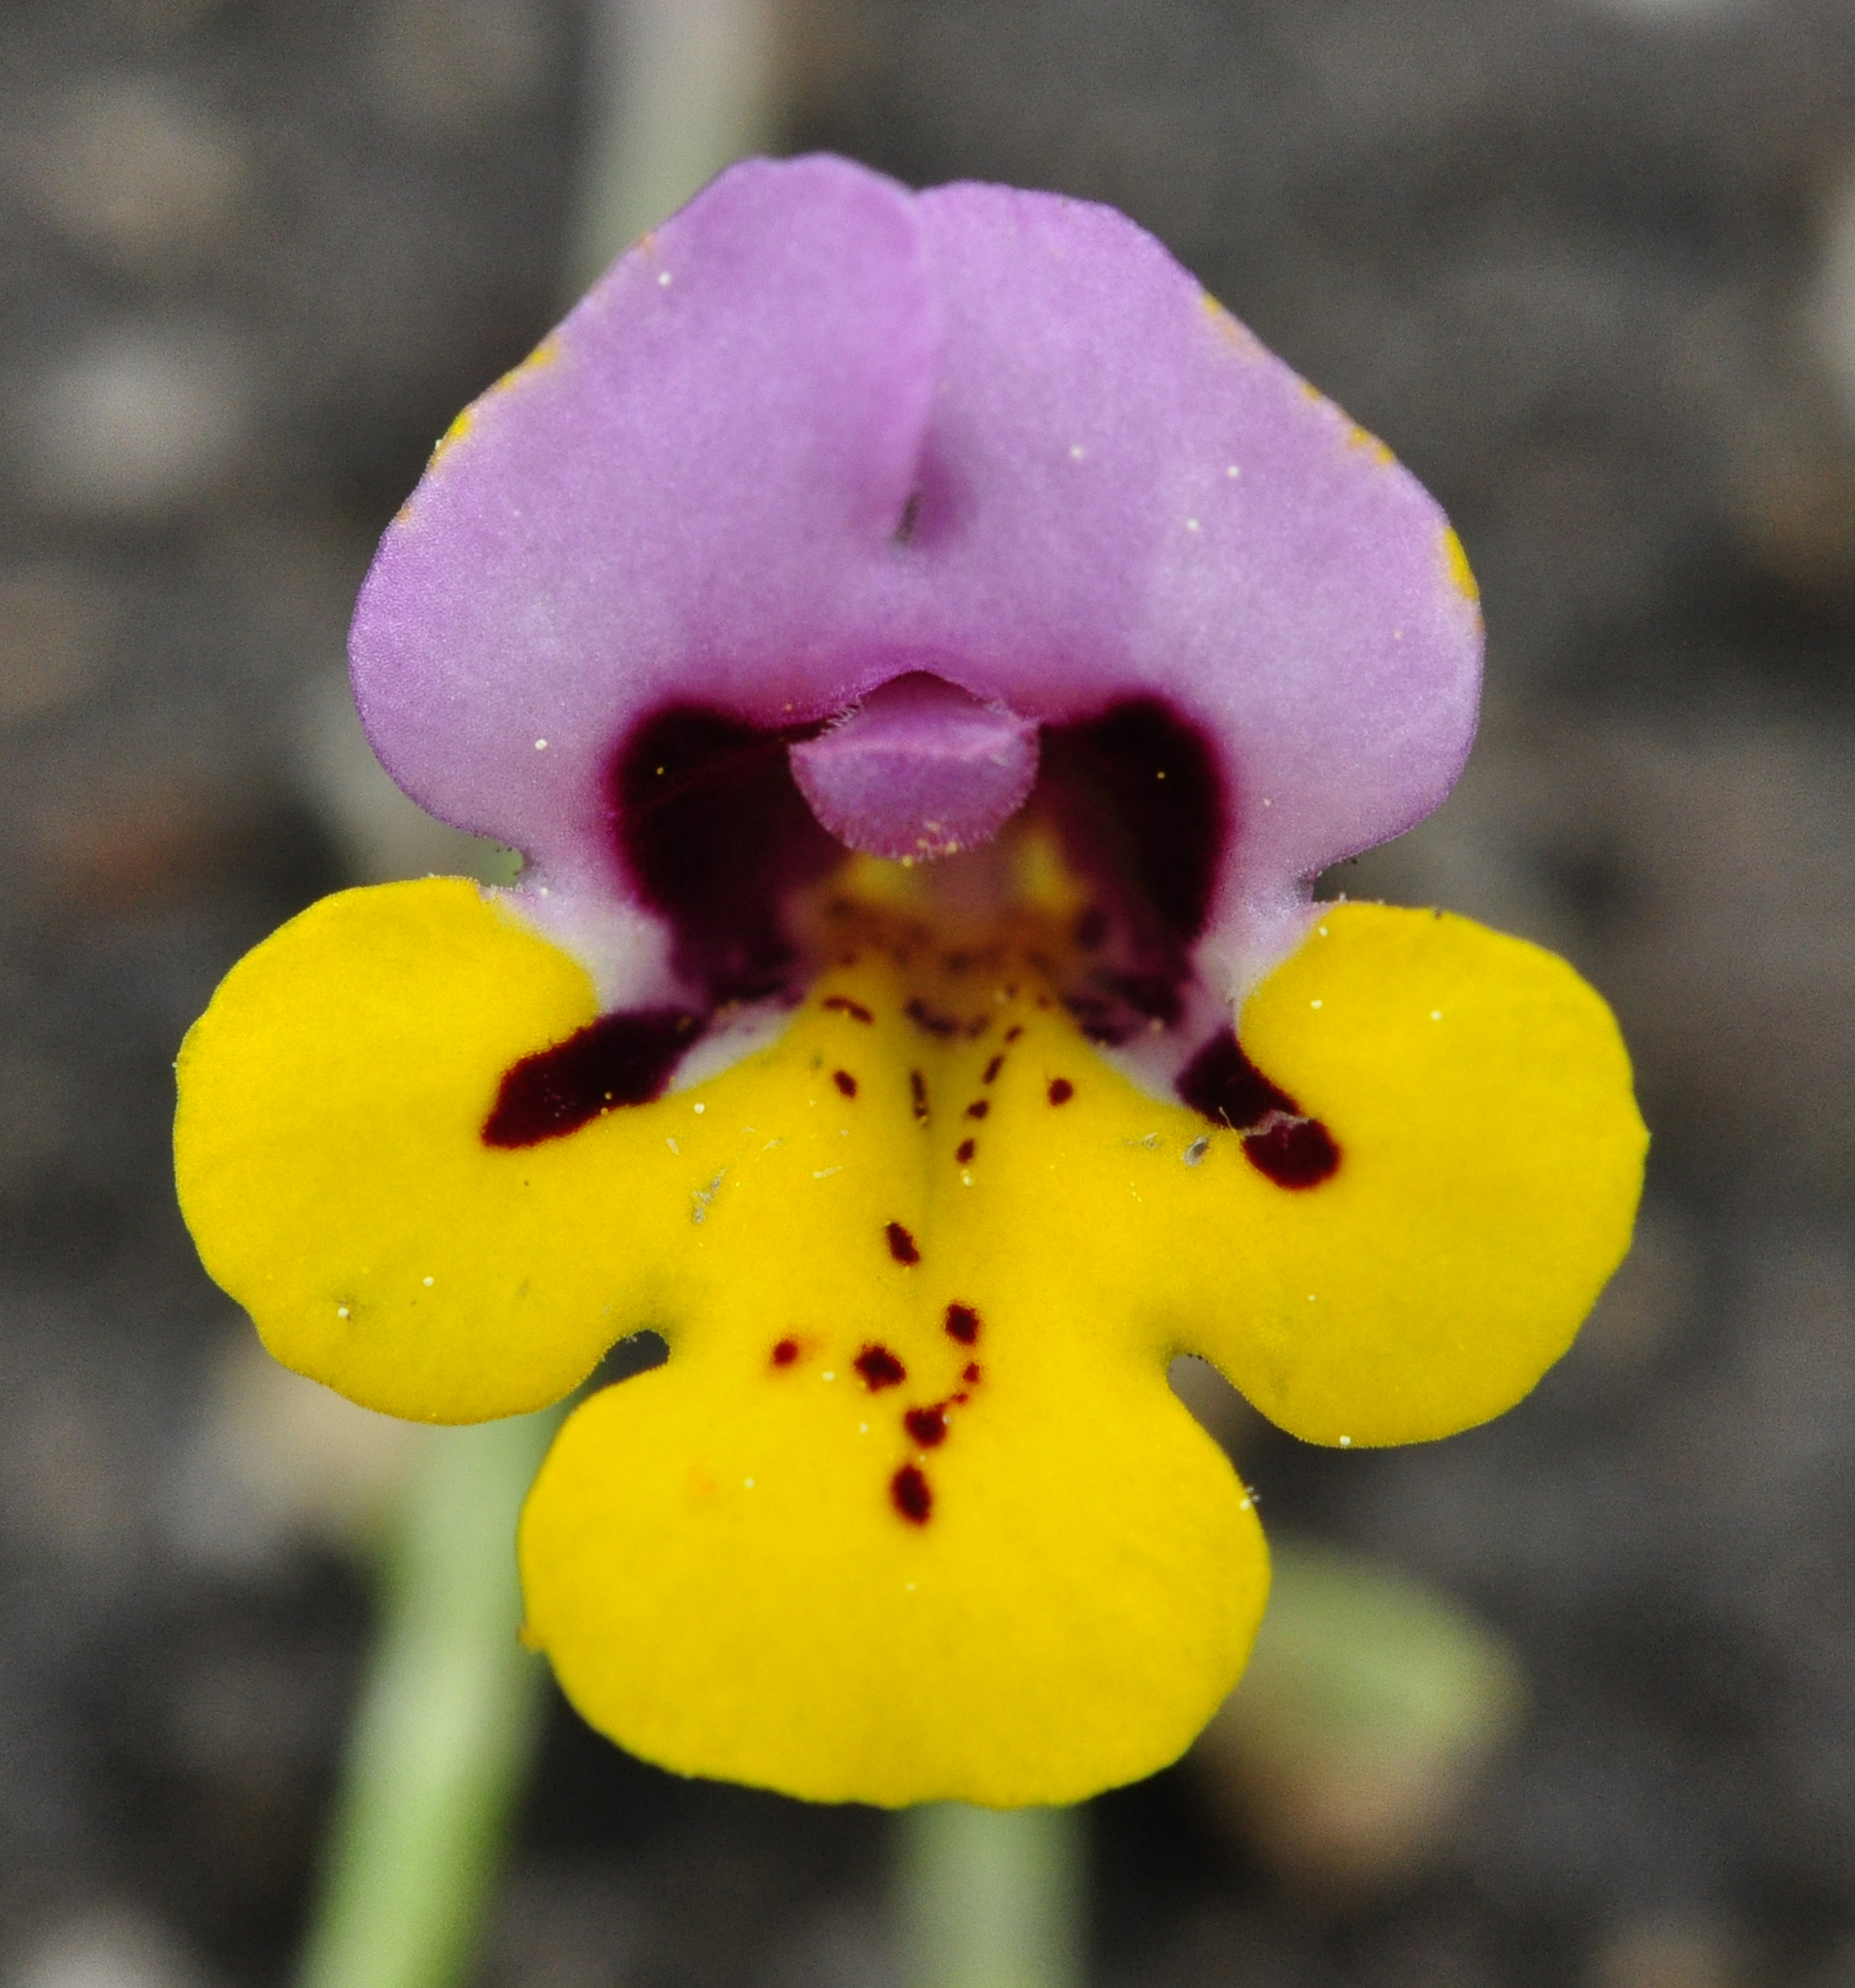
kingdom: Plantae
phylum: Tracheophyta
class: Magnoliopsida
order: Lamiales
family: Phrymaceae
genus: Diplacus
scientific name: Diplacus pulchellus
